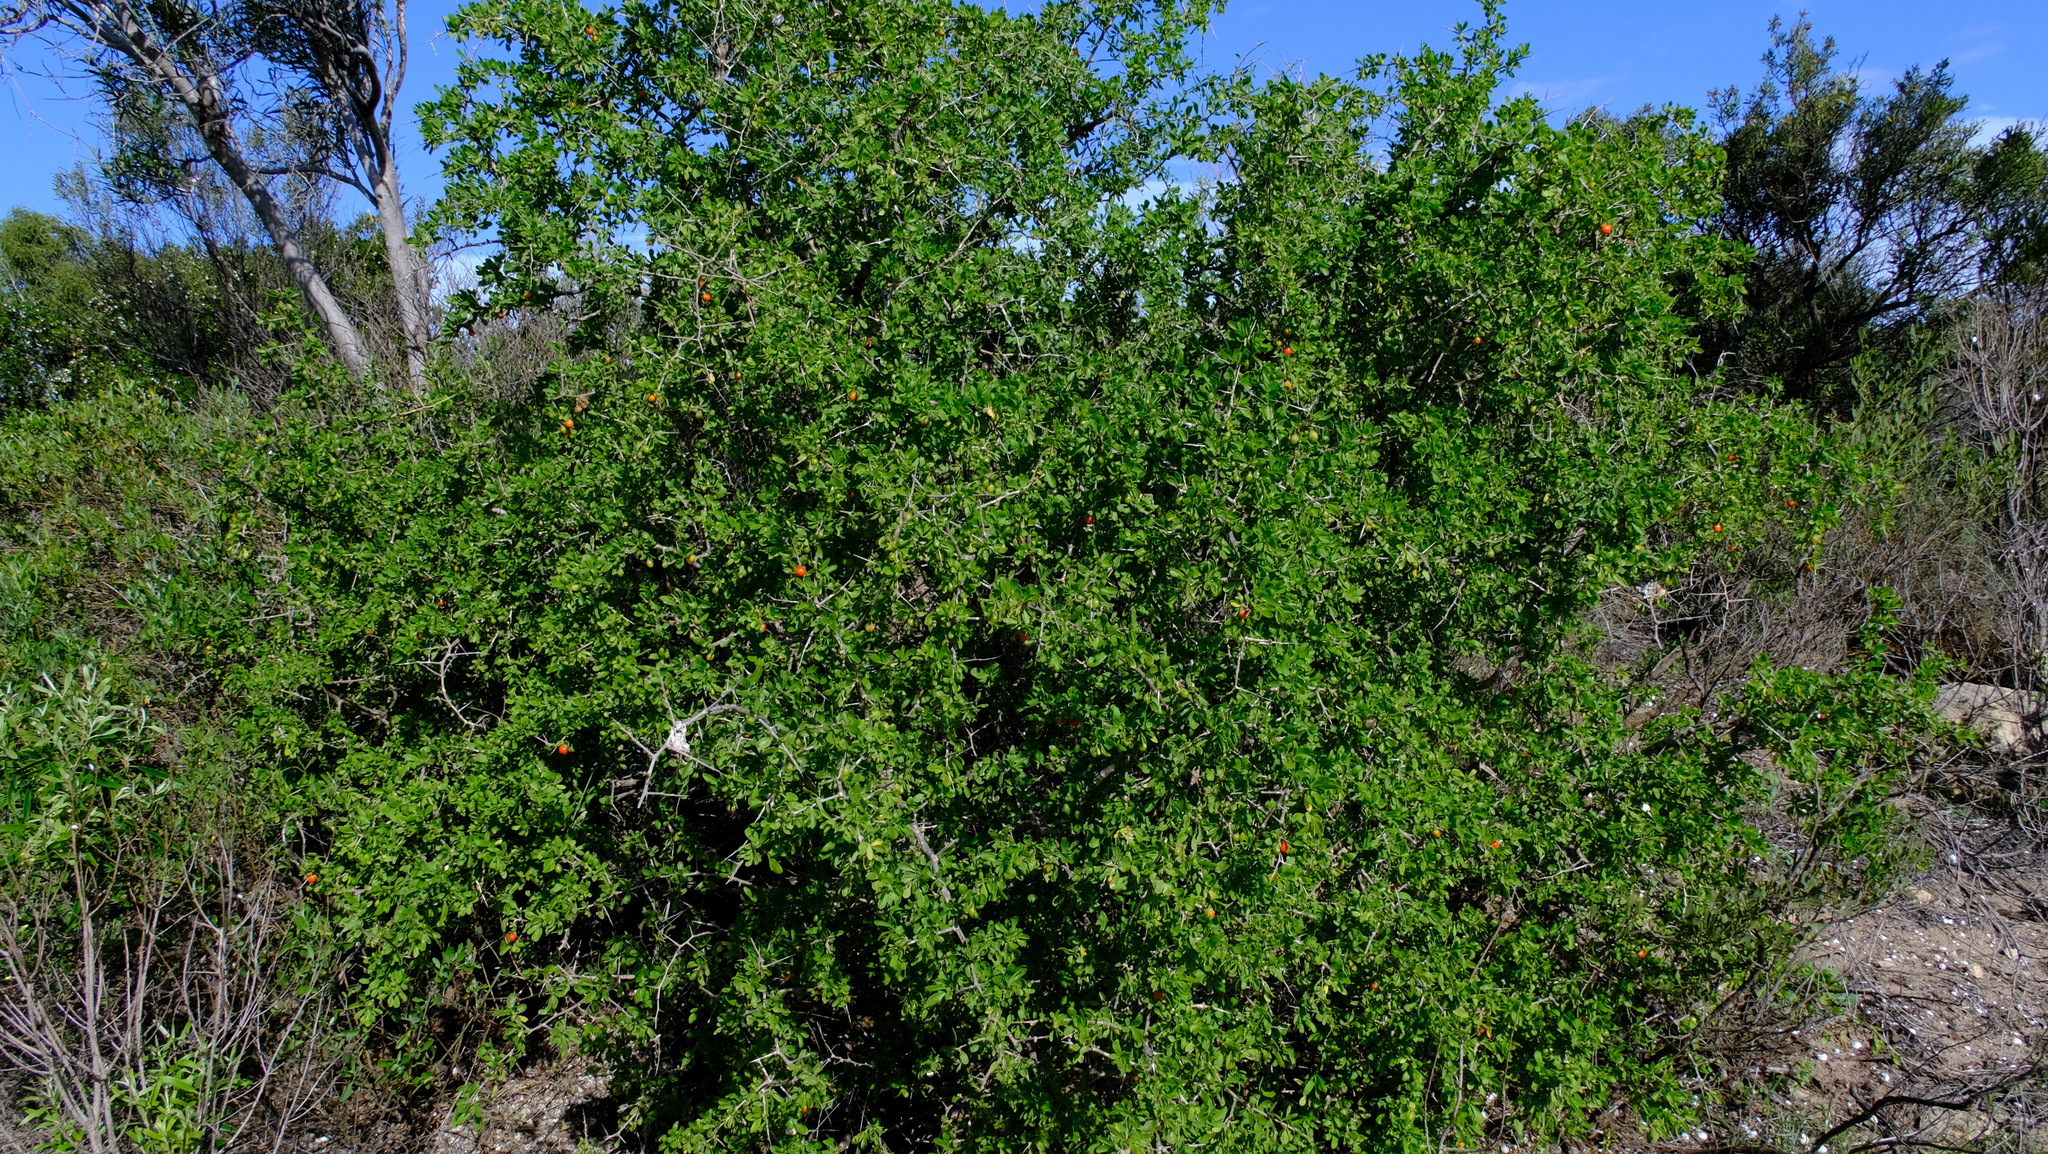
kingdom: Plantae
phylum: Tracheophyta
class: Magnoliopsida
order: Solanales
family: Solanaceae
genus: Lycium
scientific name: Lycium ferocissimum
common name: African boxthorn
